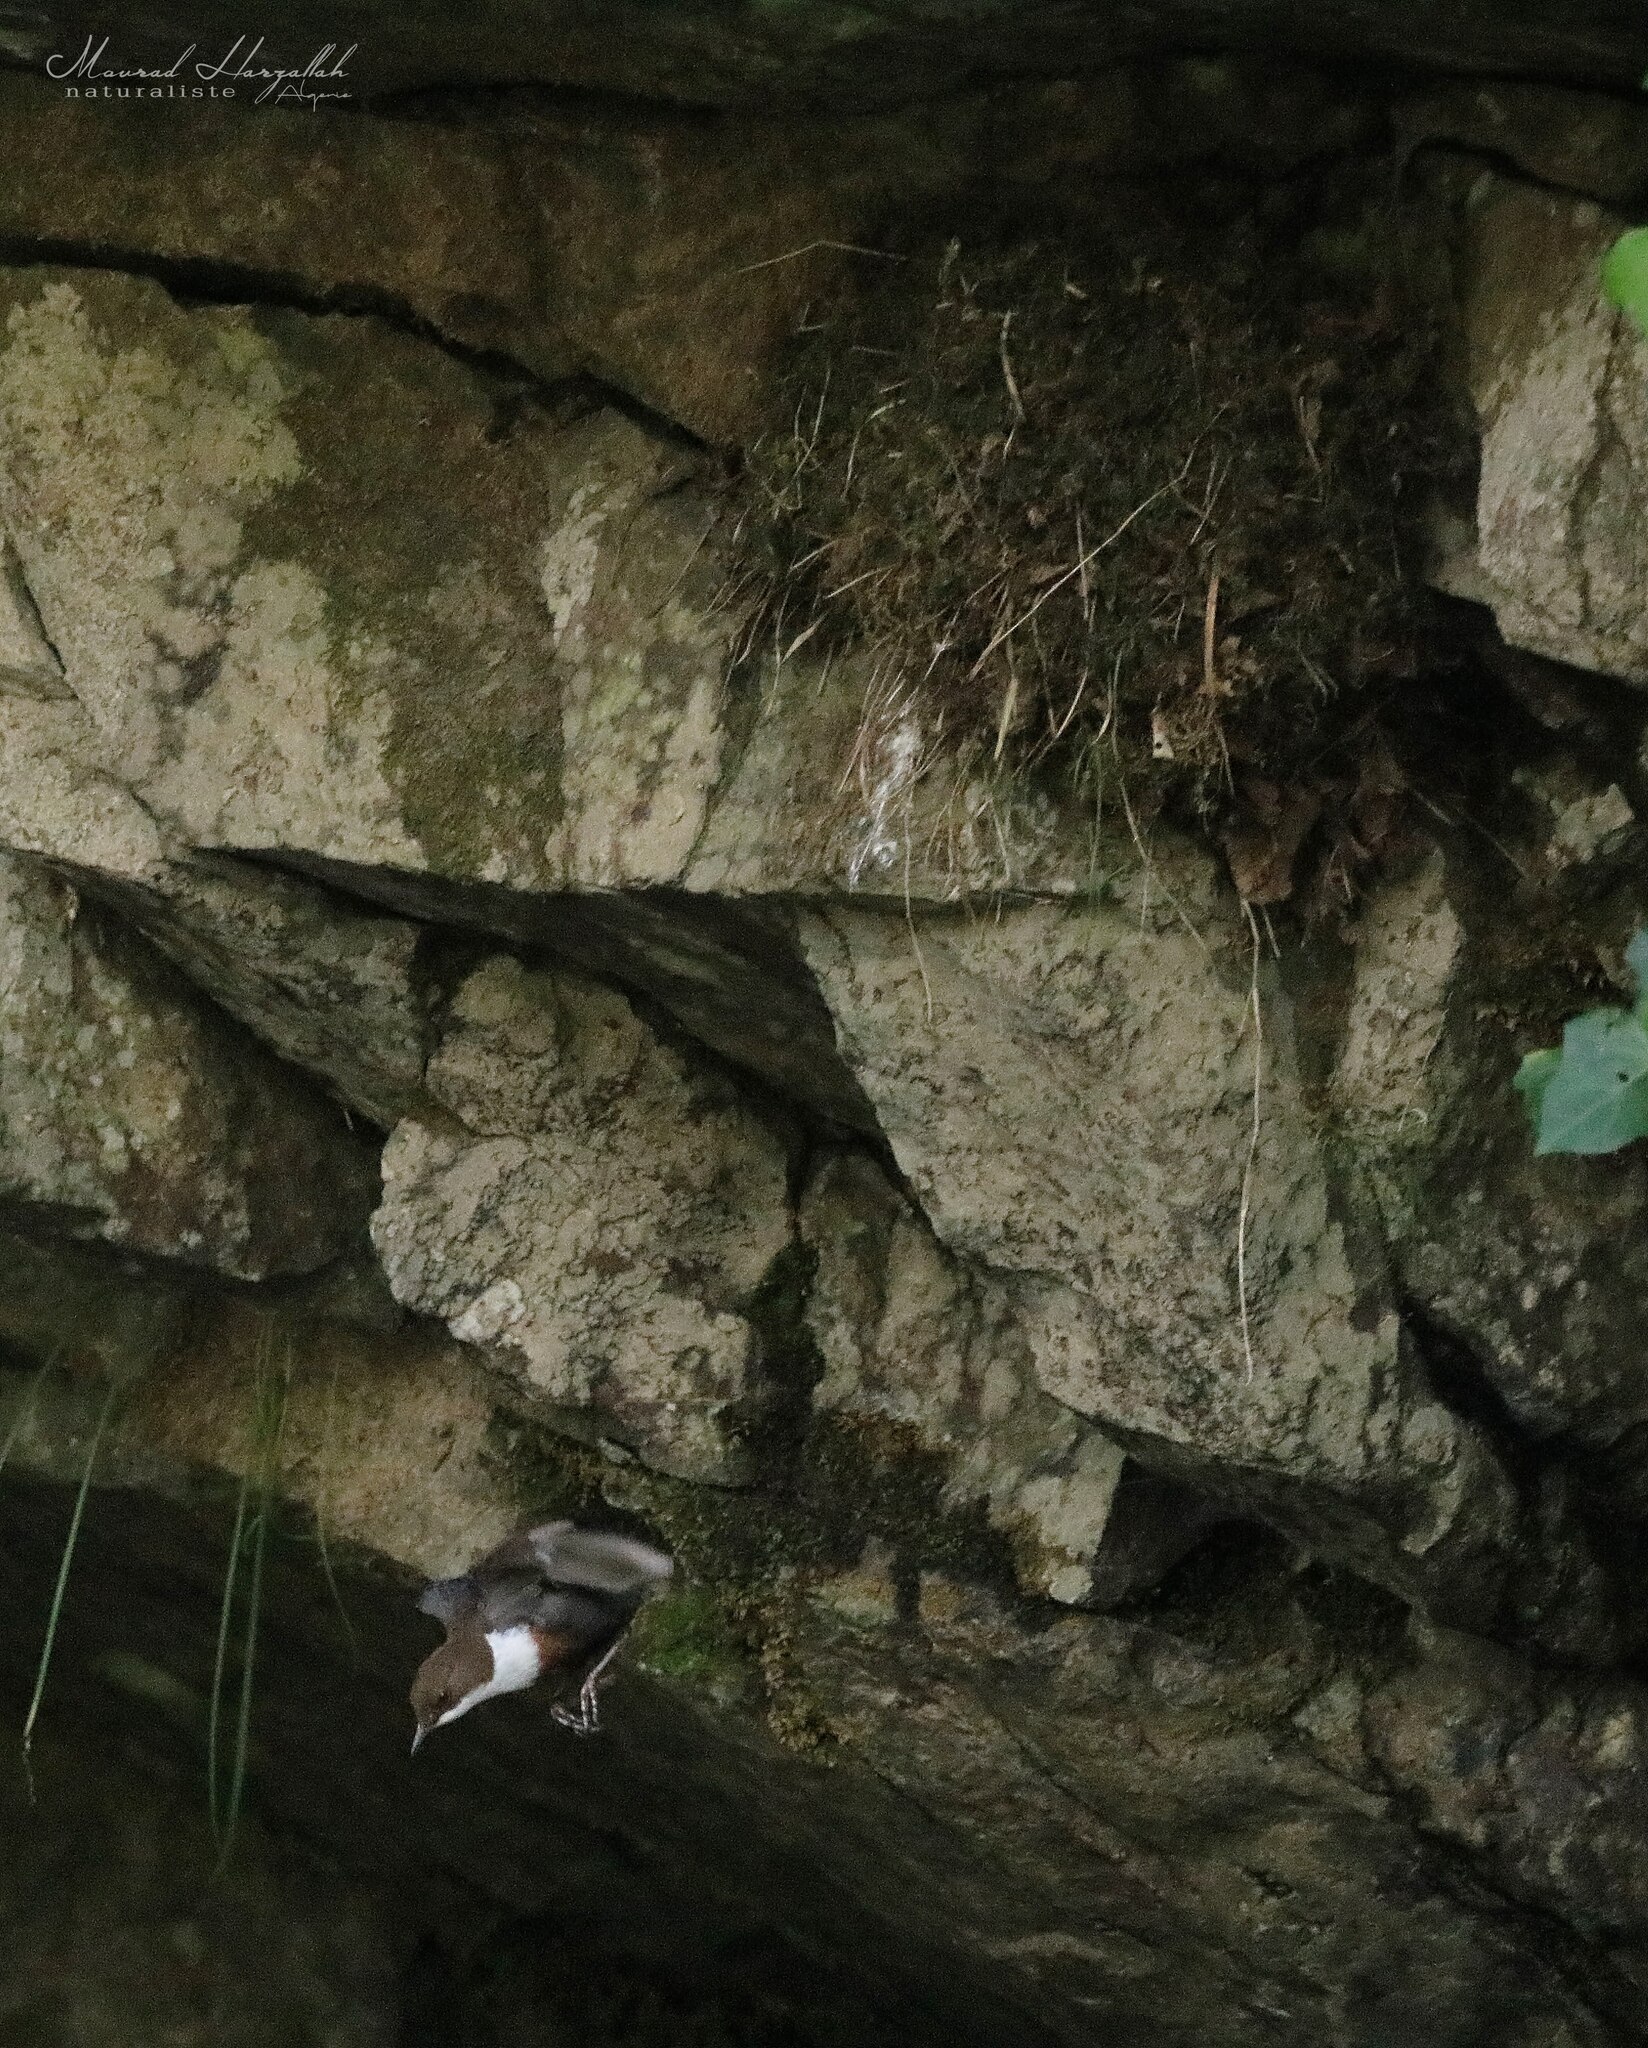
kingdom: Animalia
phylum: Chordata
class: Aves
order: Passeriformes
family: Cinclidae
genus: Cinclus
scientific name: Cinclus cinclus
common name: White-throated dipper
